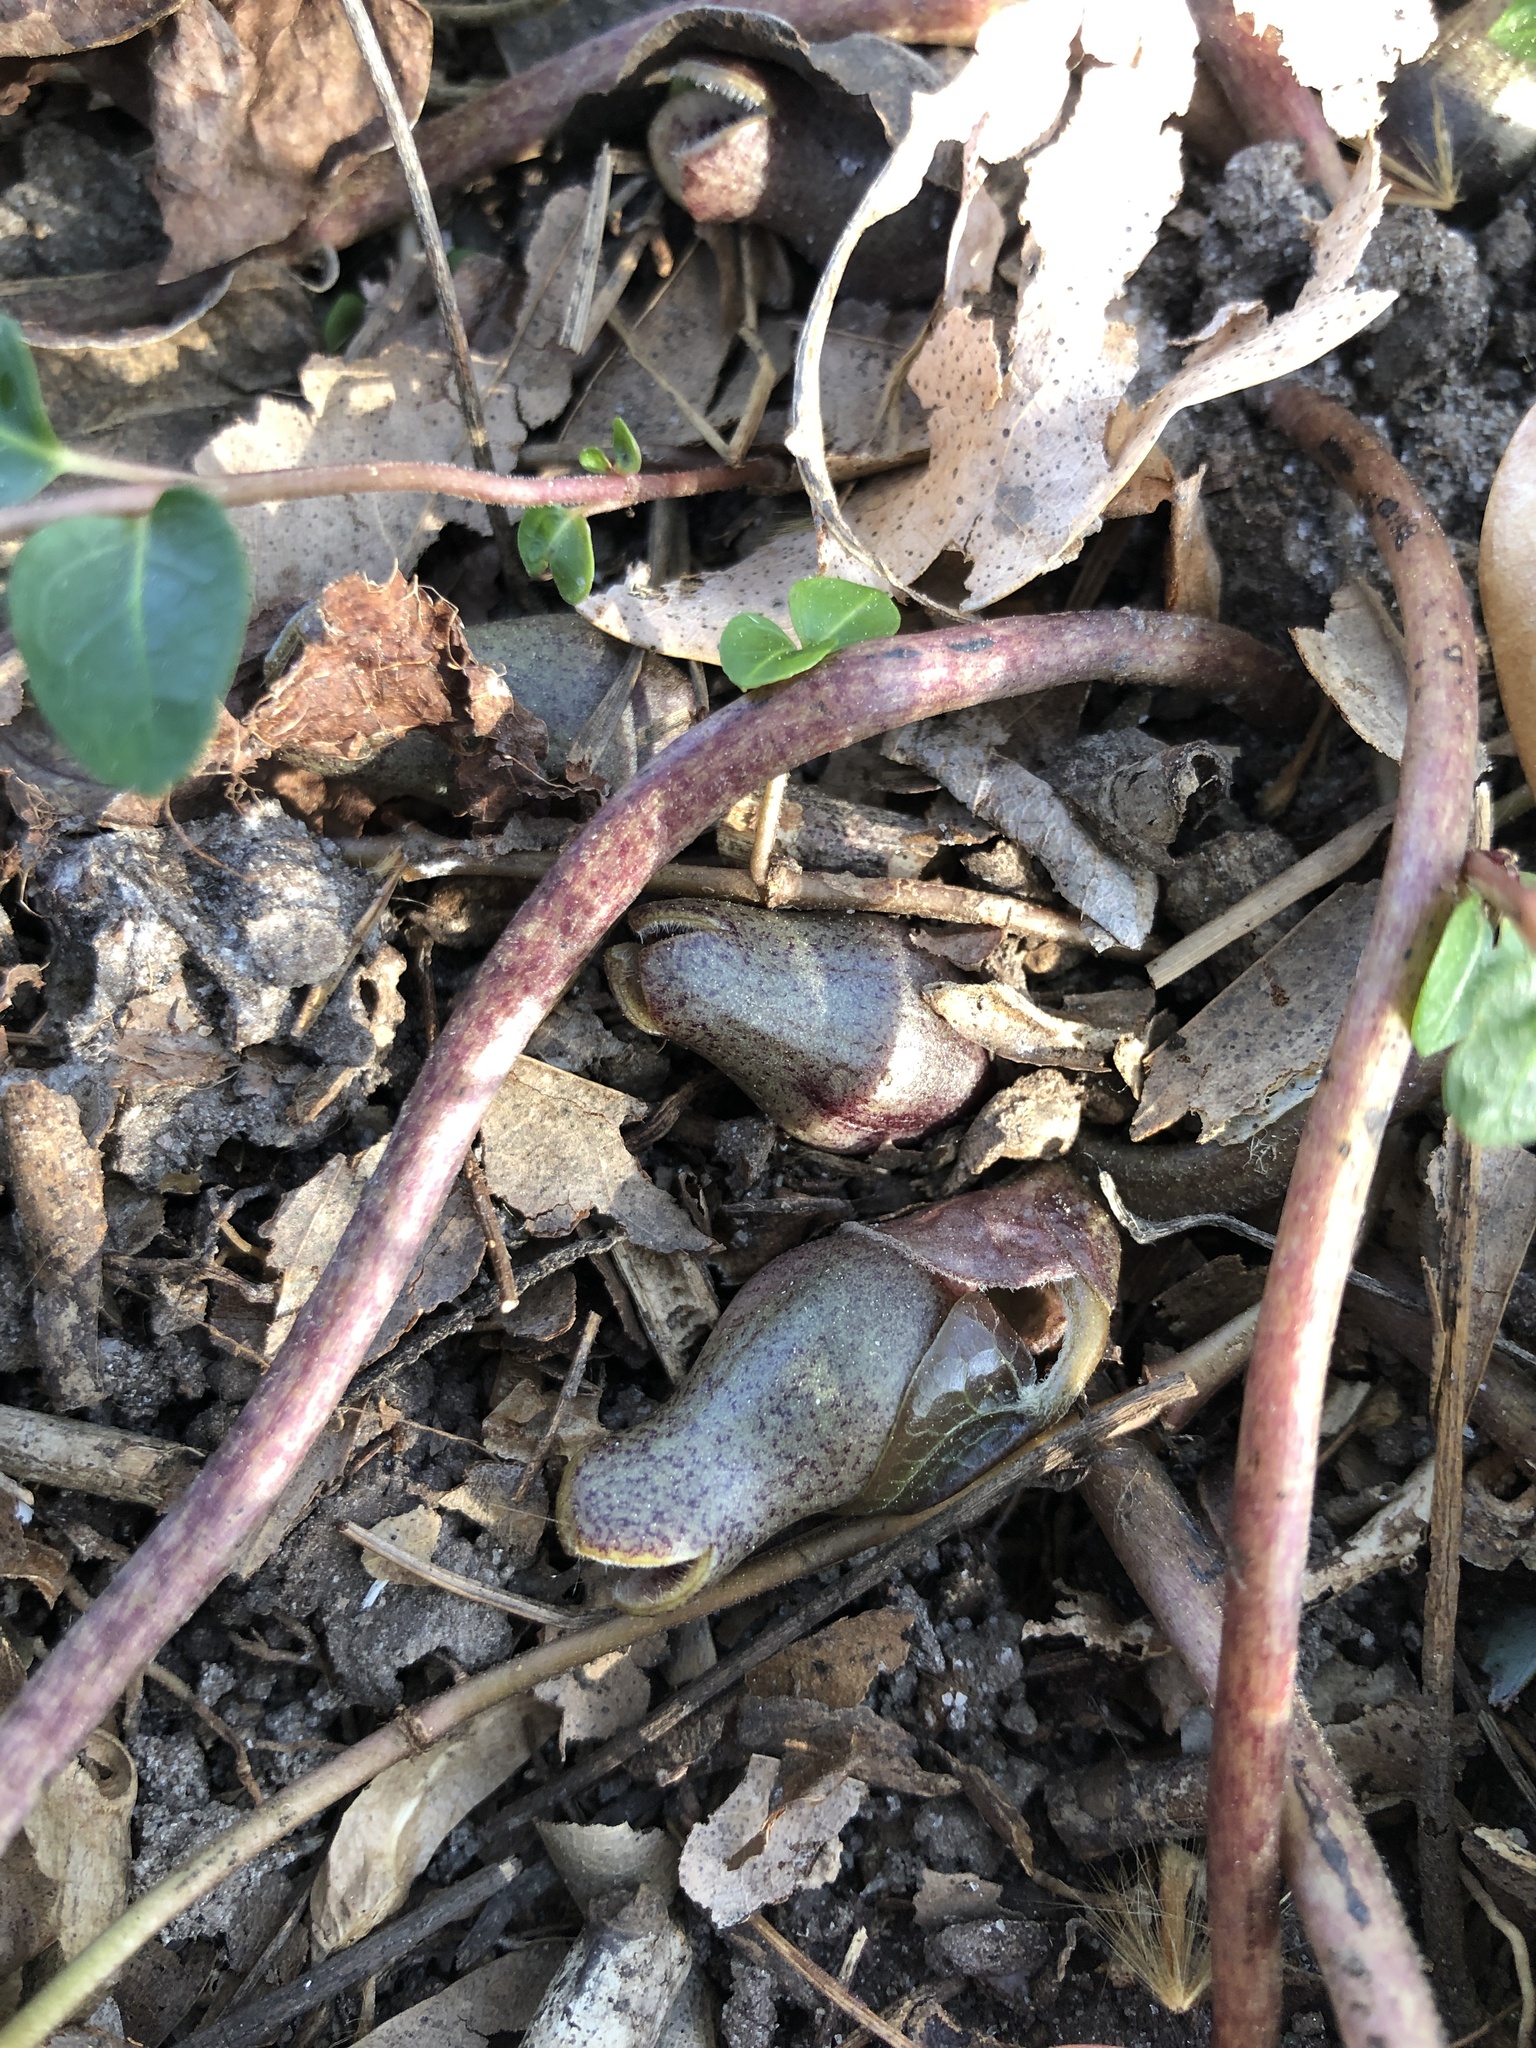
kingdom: Plantae
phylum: Tracheophyta
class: Magnoliopsida
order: Piperales
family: Aristolochiaceae
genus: Hexastylis
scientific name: Hexastylis arifolia
